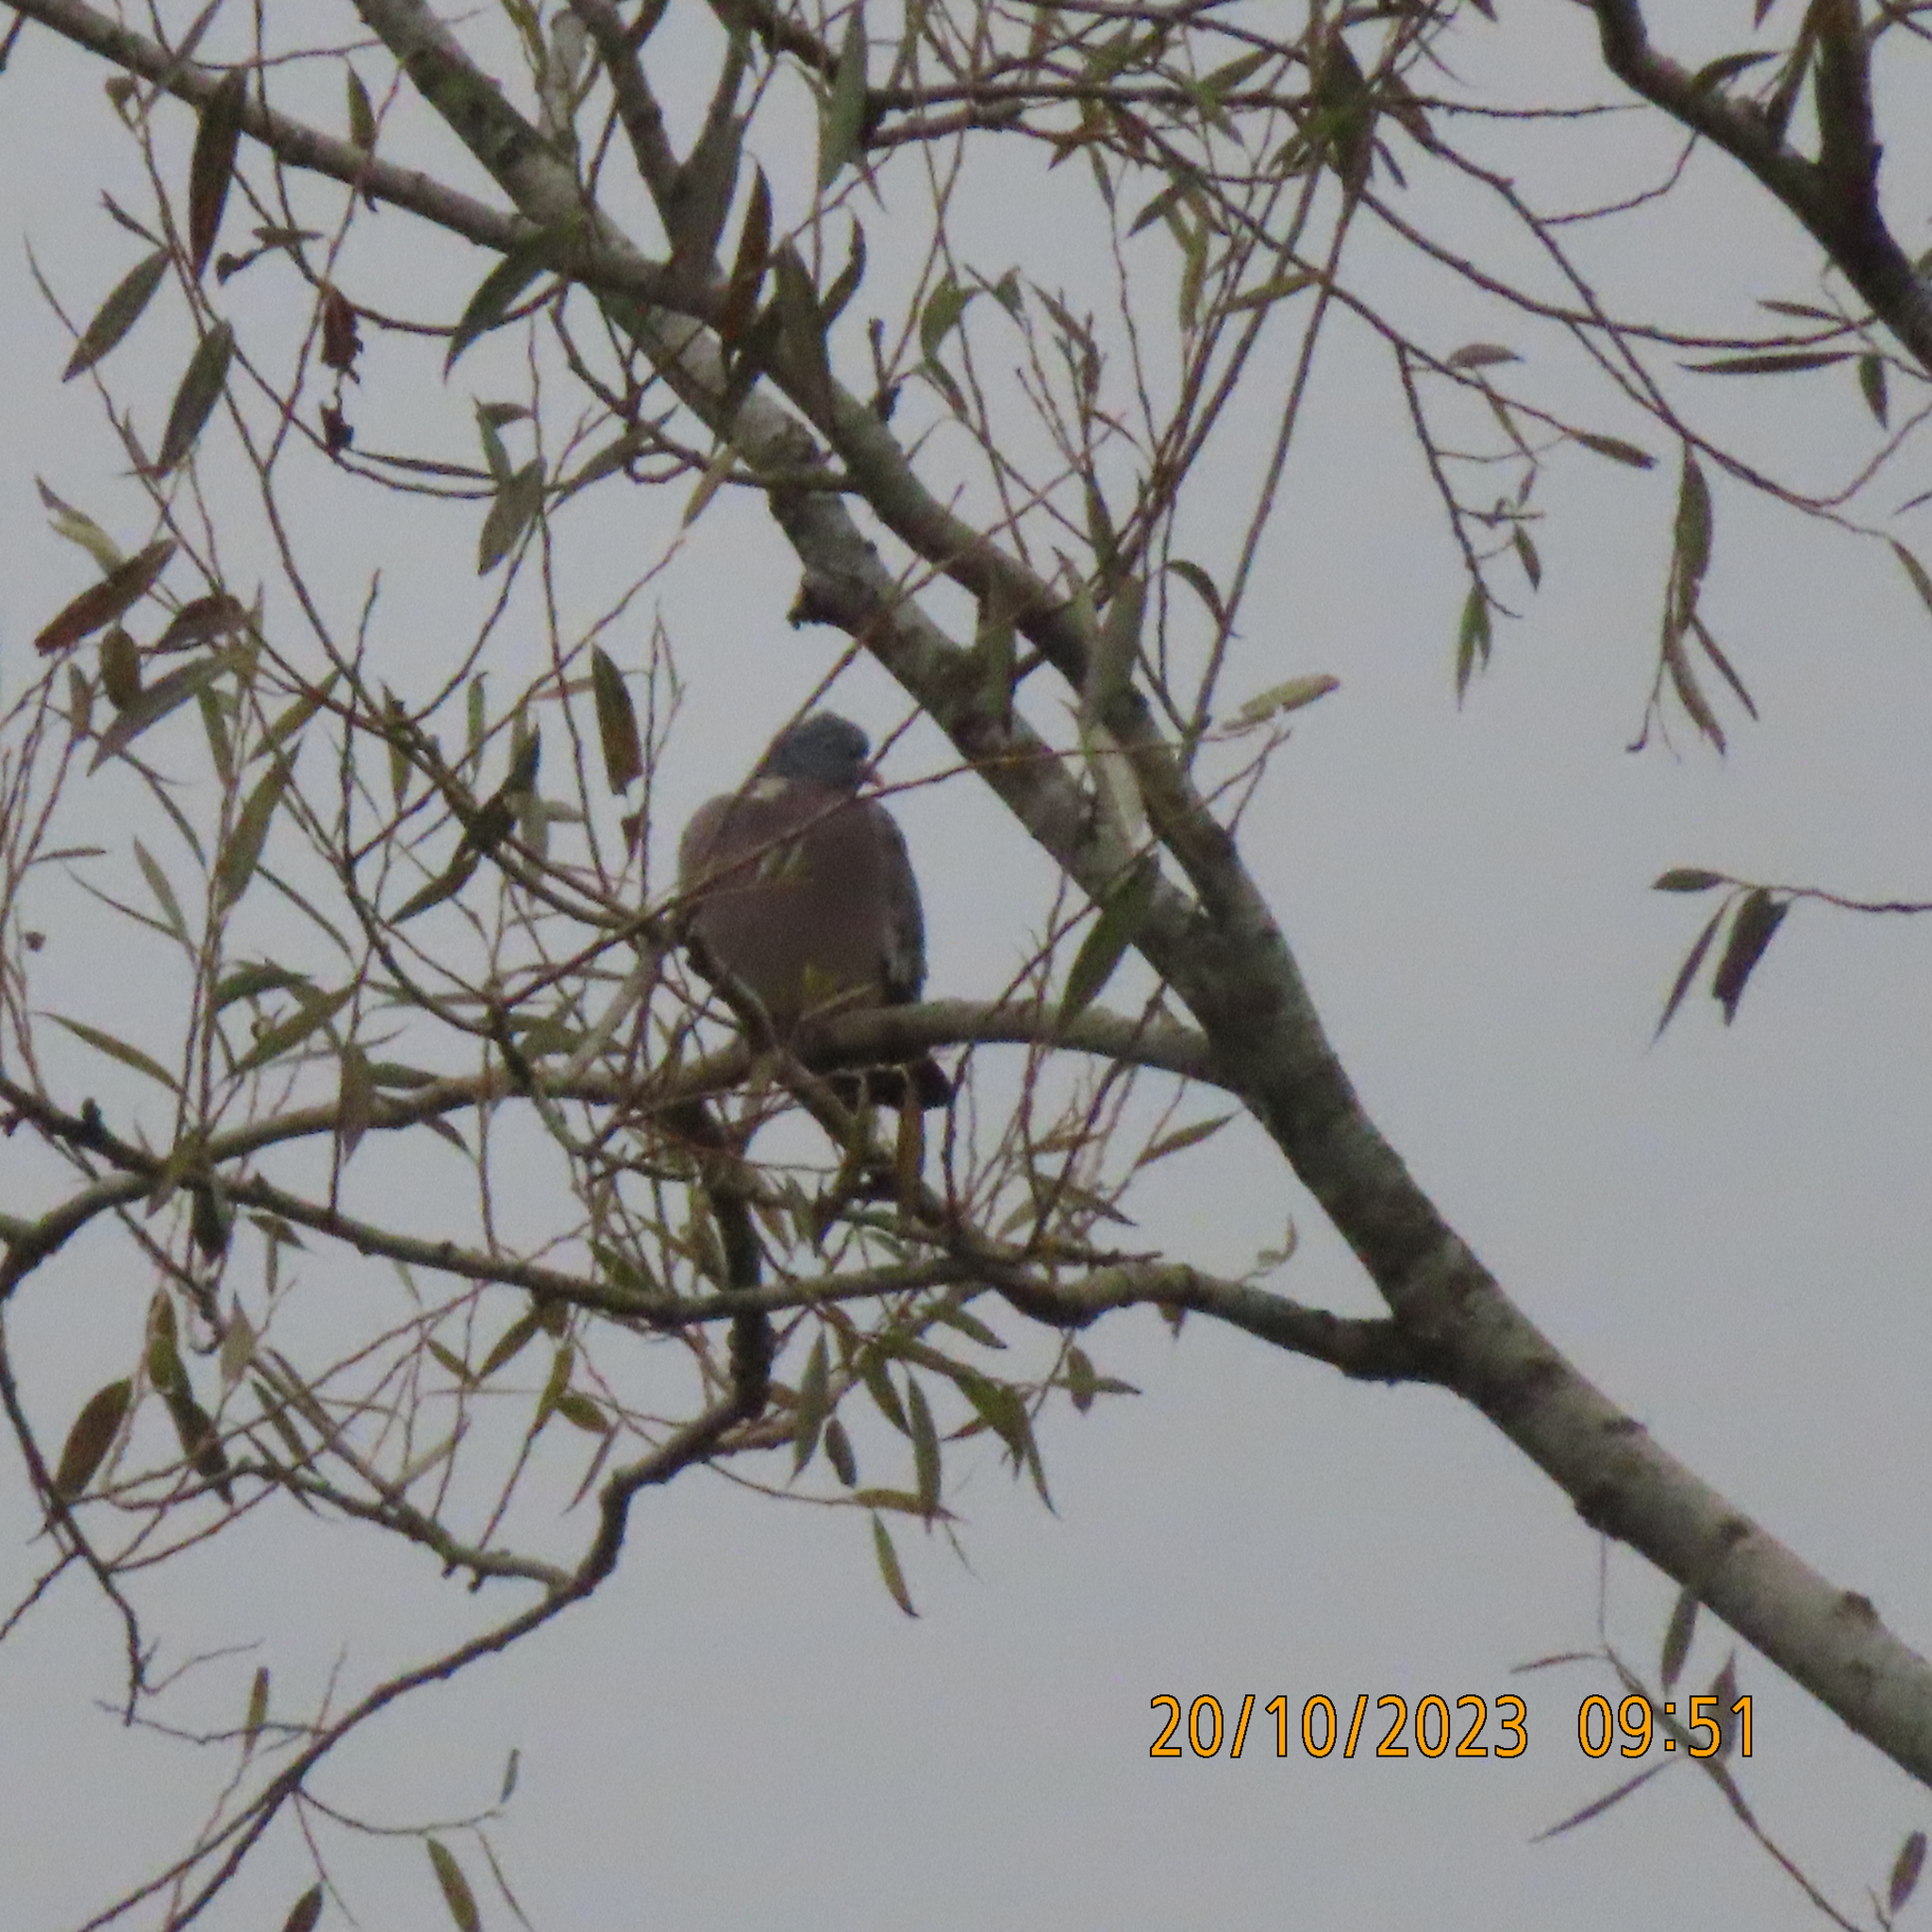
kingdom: Animalia
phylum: Chordata
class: Aves
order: Columbiformes
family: Columbidae
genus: Columba
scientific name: Columba palumbus
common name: Common wood pigeon
